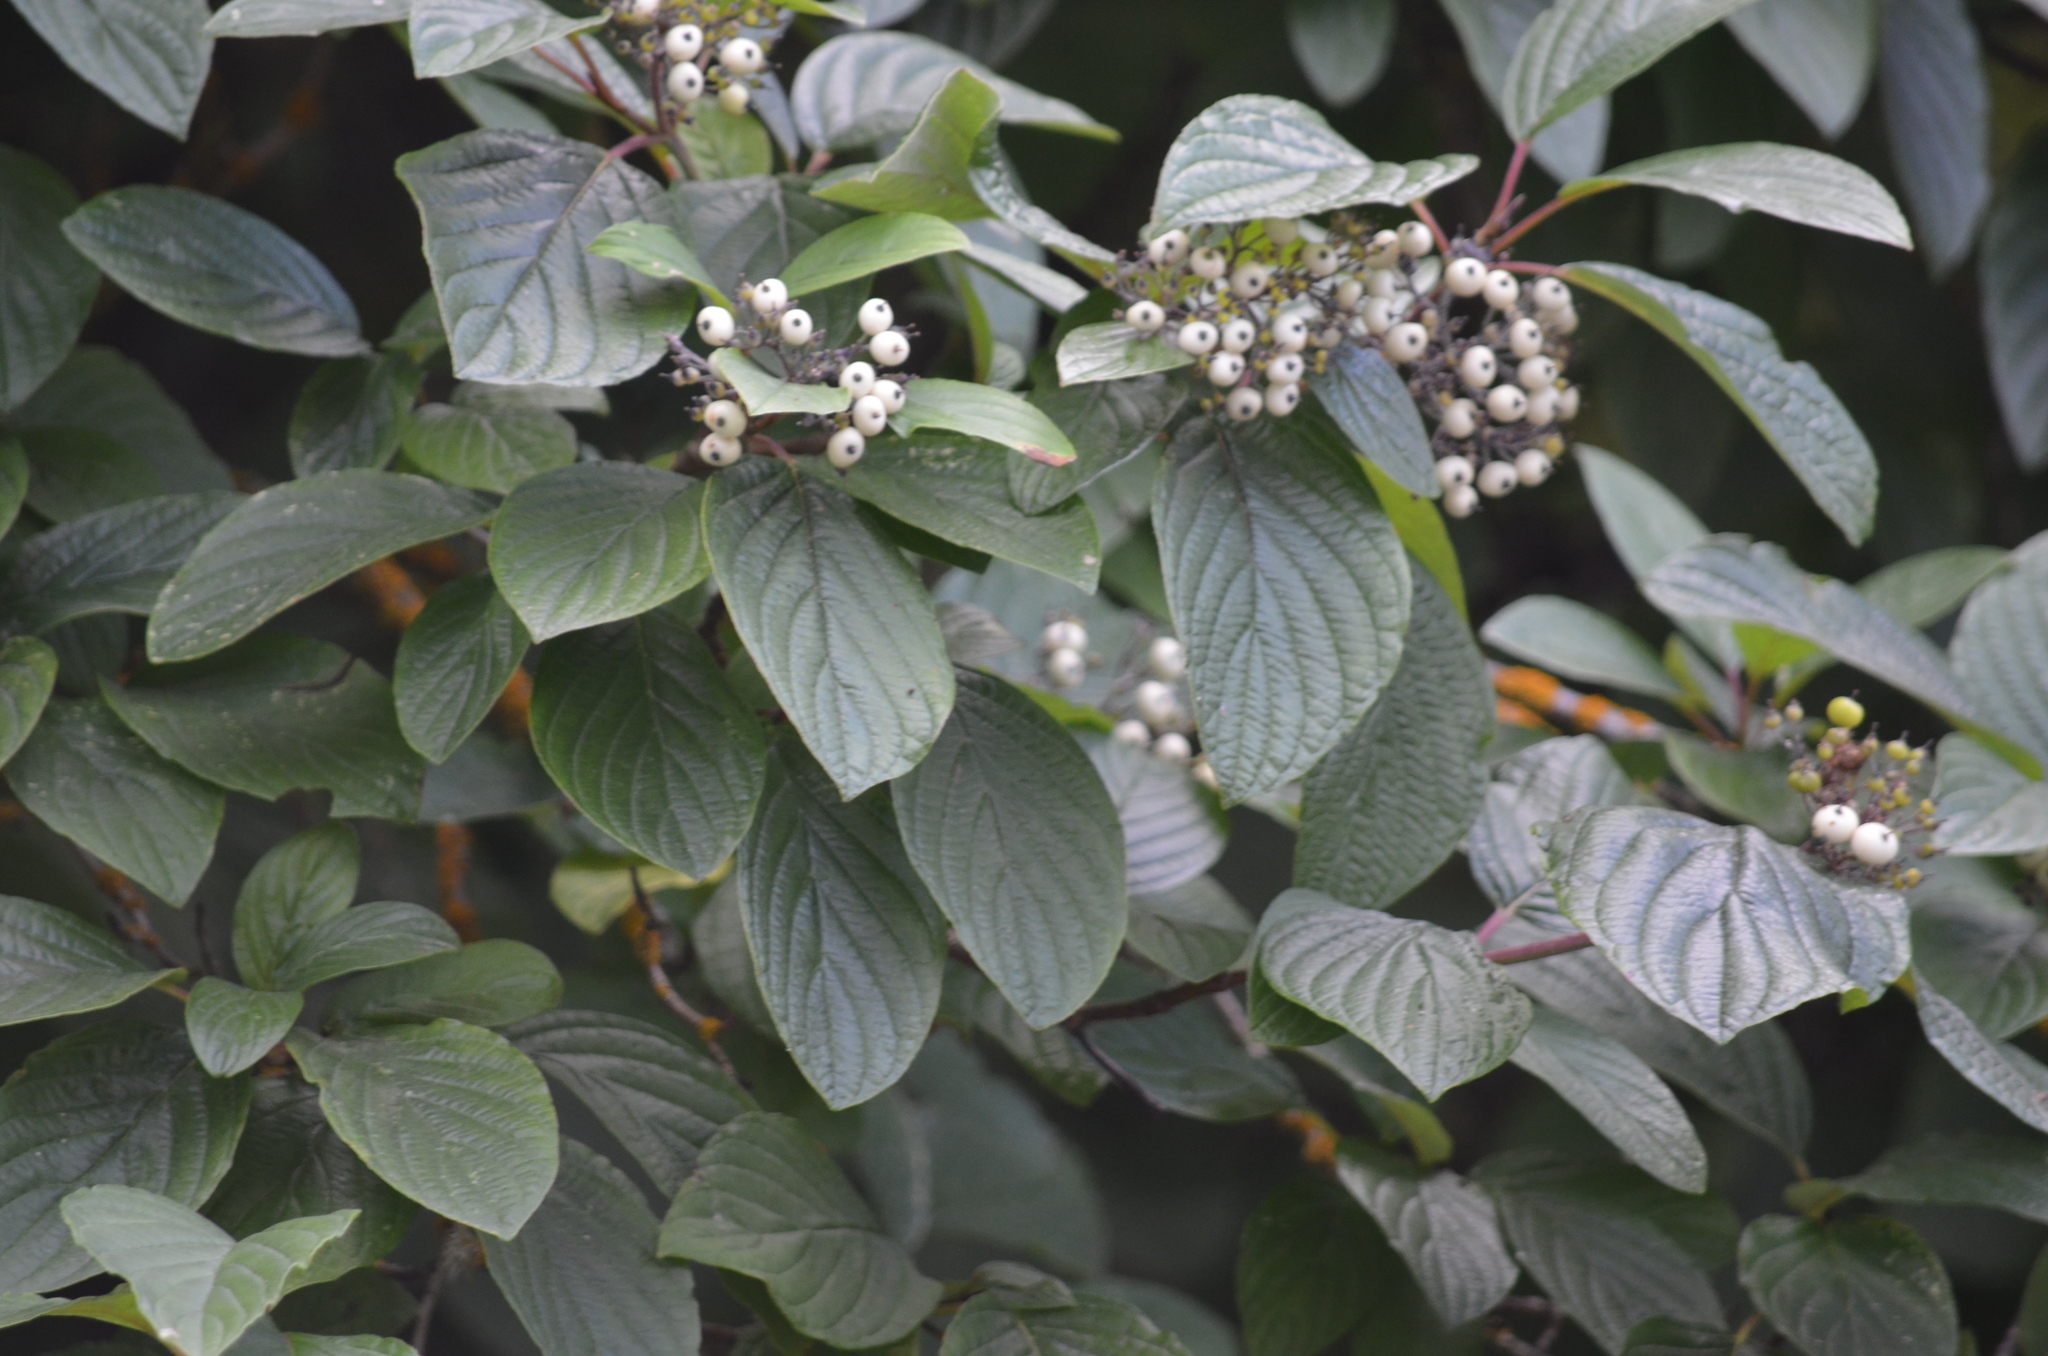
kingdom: Plantae
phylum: Tracheophyta
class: Magnoliopsida
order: Cornales
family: Cornaceae
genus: Cornus
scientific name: Cornus sericea
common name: Red-osier dogwood
